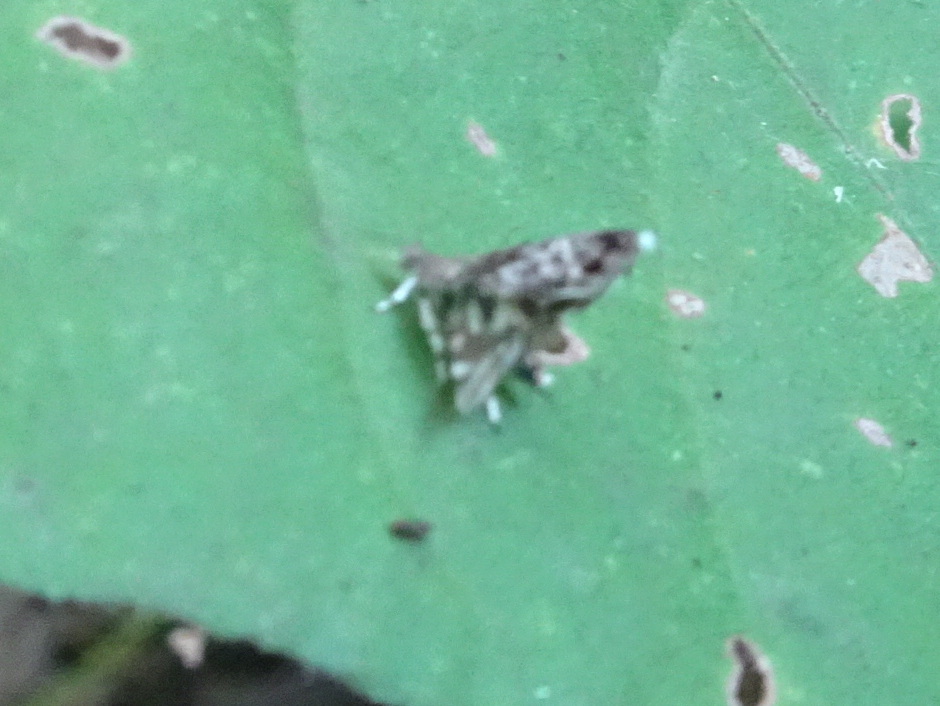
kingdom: Animalia
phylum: Arthropoda
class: Insecta
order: Lepidoptera
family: Choreutidae
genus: Brenthia
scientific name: Brenthia pavonacella
